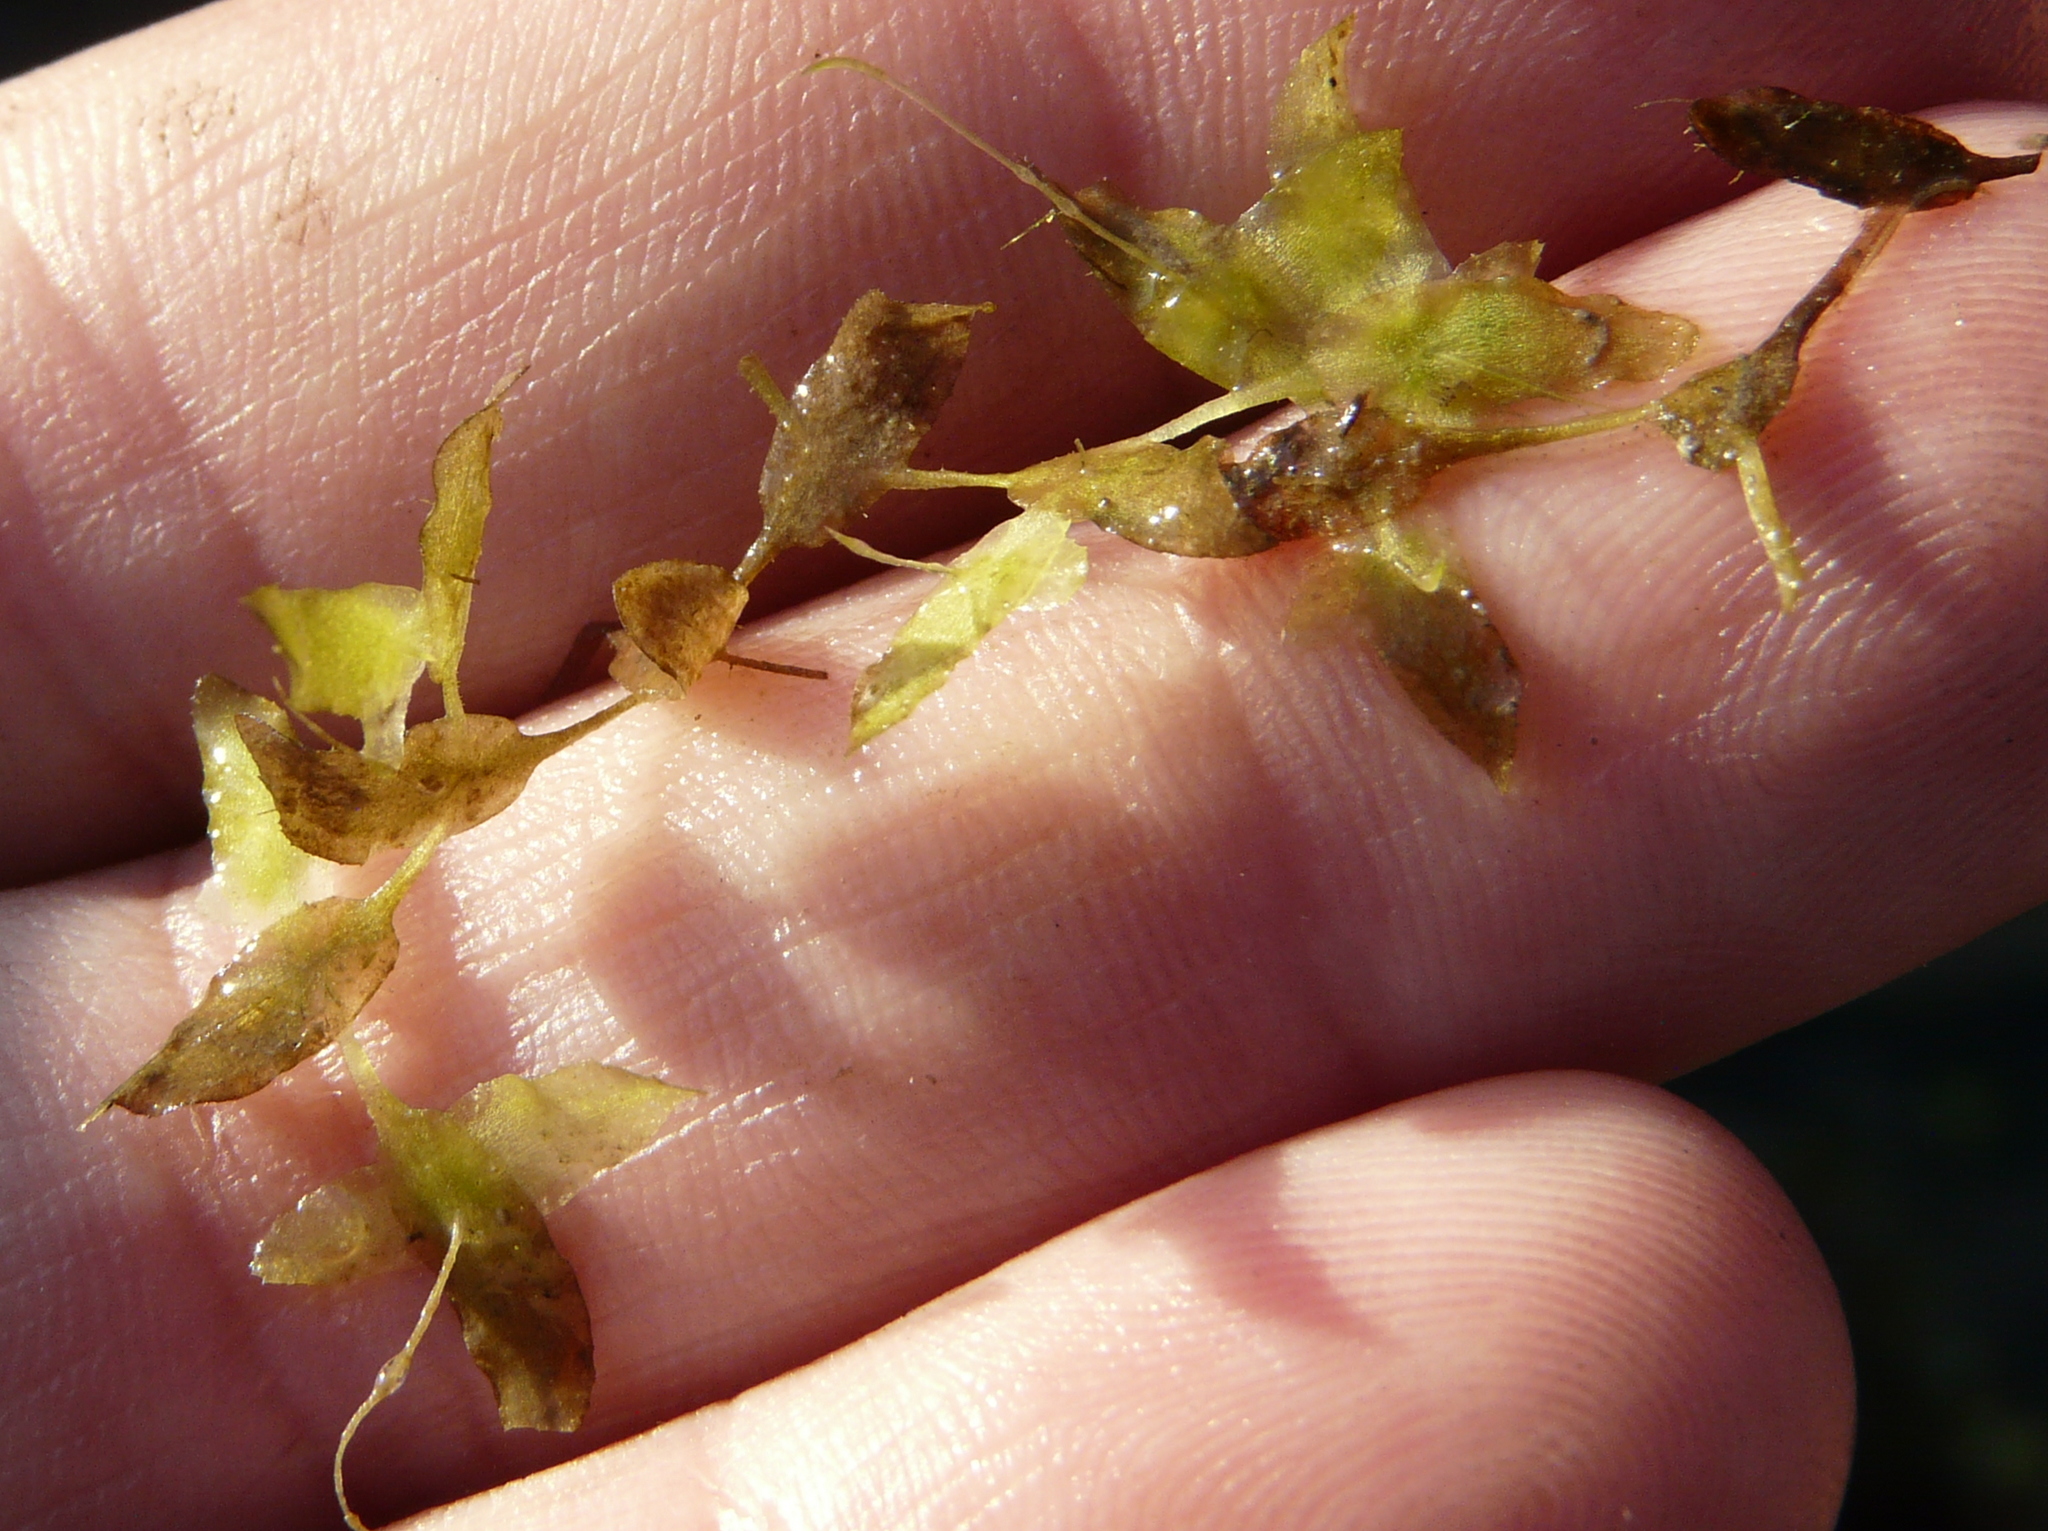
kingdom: Plantae
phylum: Tracheophyta
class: Liliopsida
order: Alismatales
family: Araceae
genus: Lemna
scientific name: Lemna trisulca
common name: Ivy-leaved duckweed
